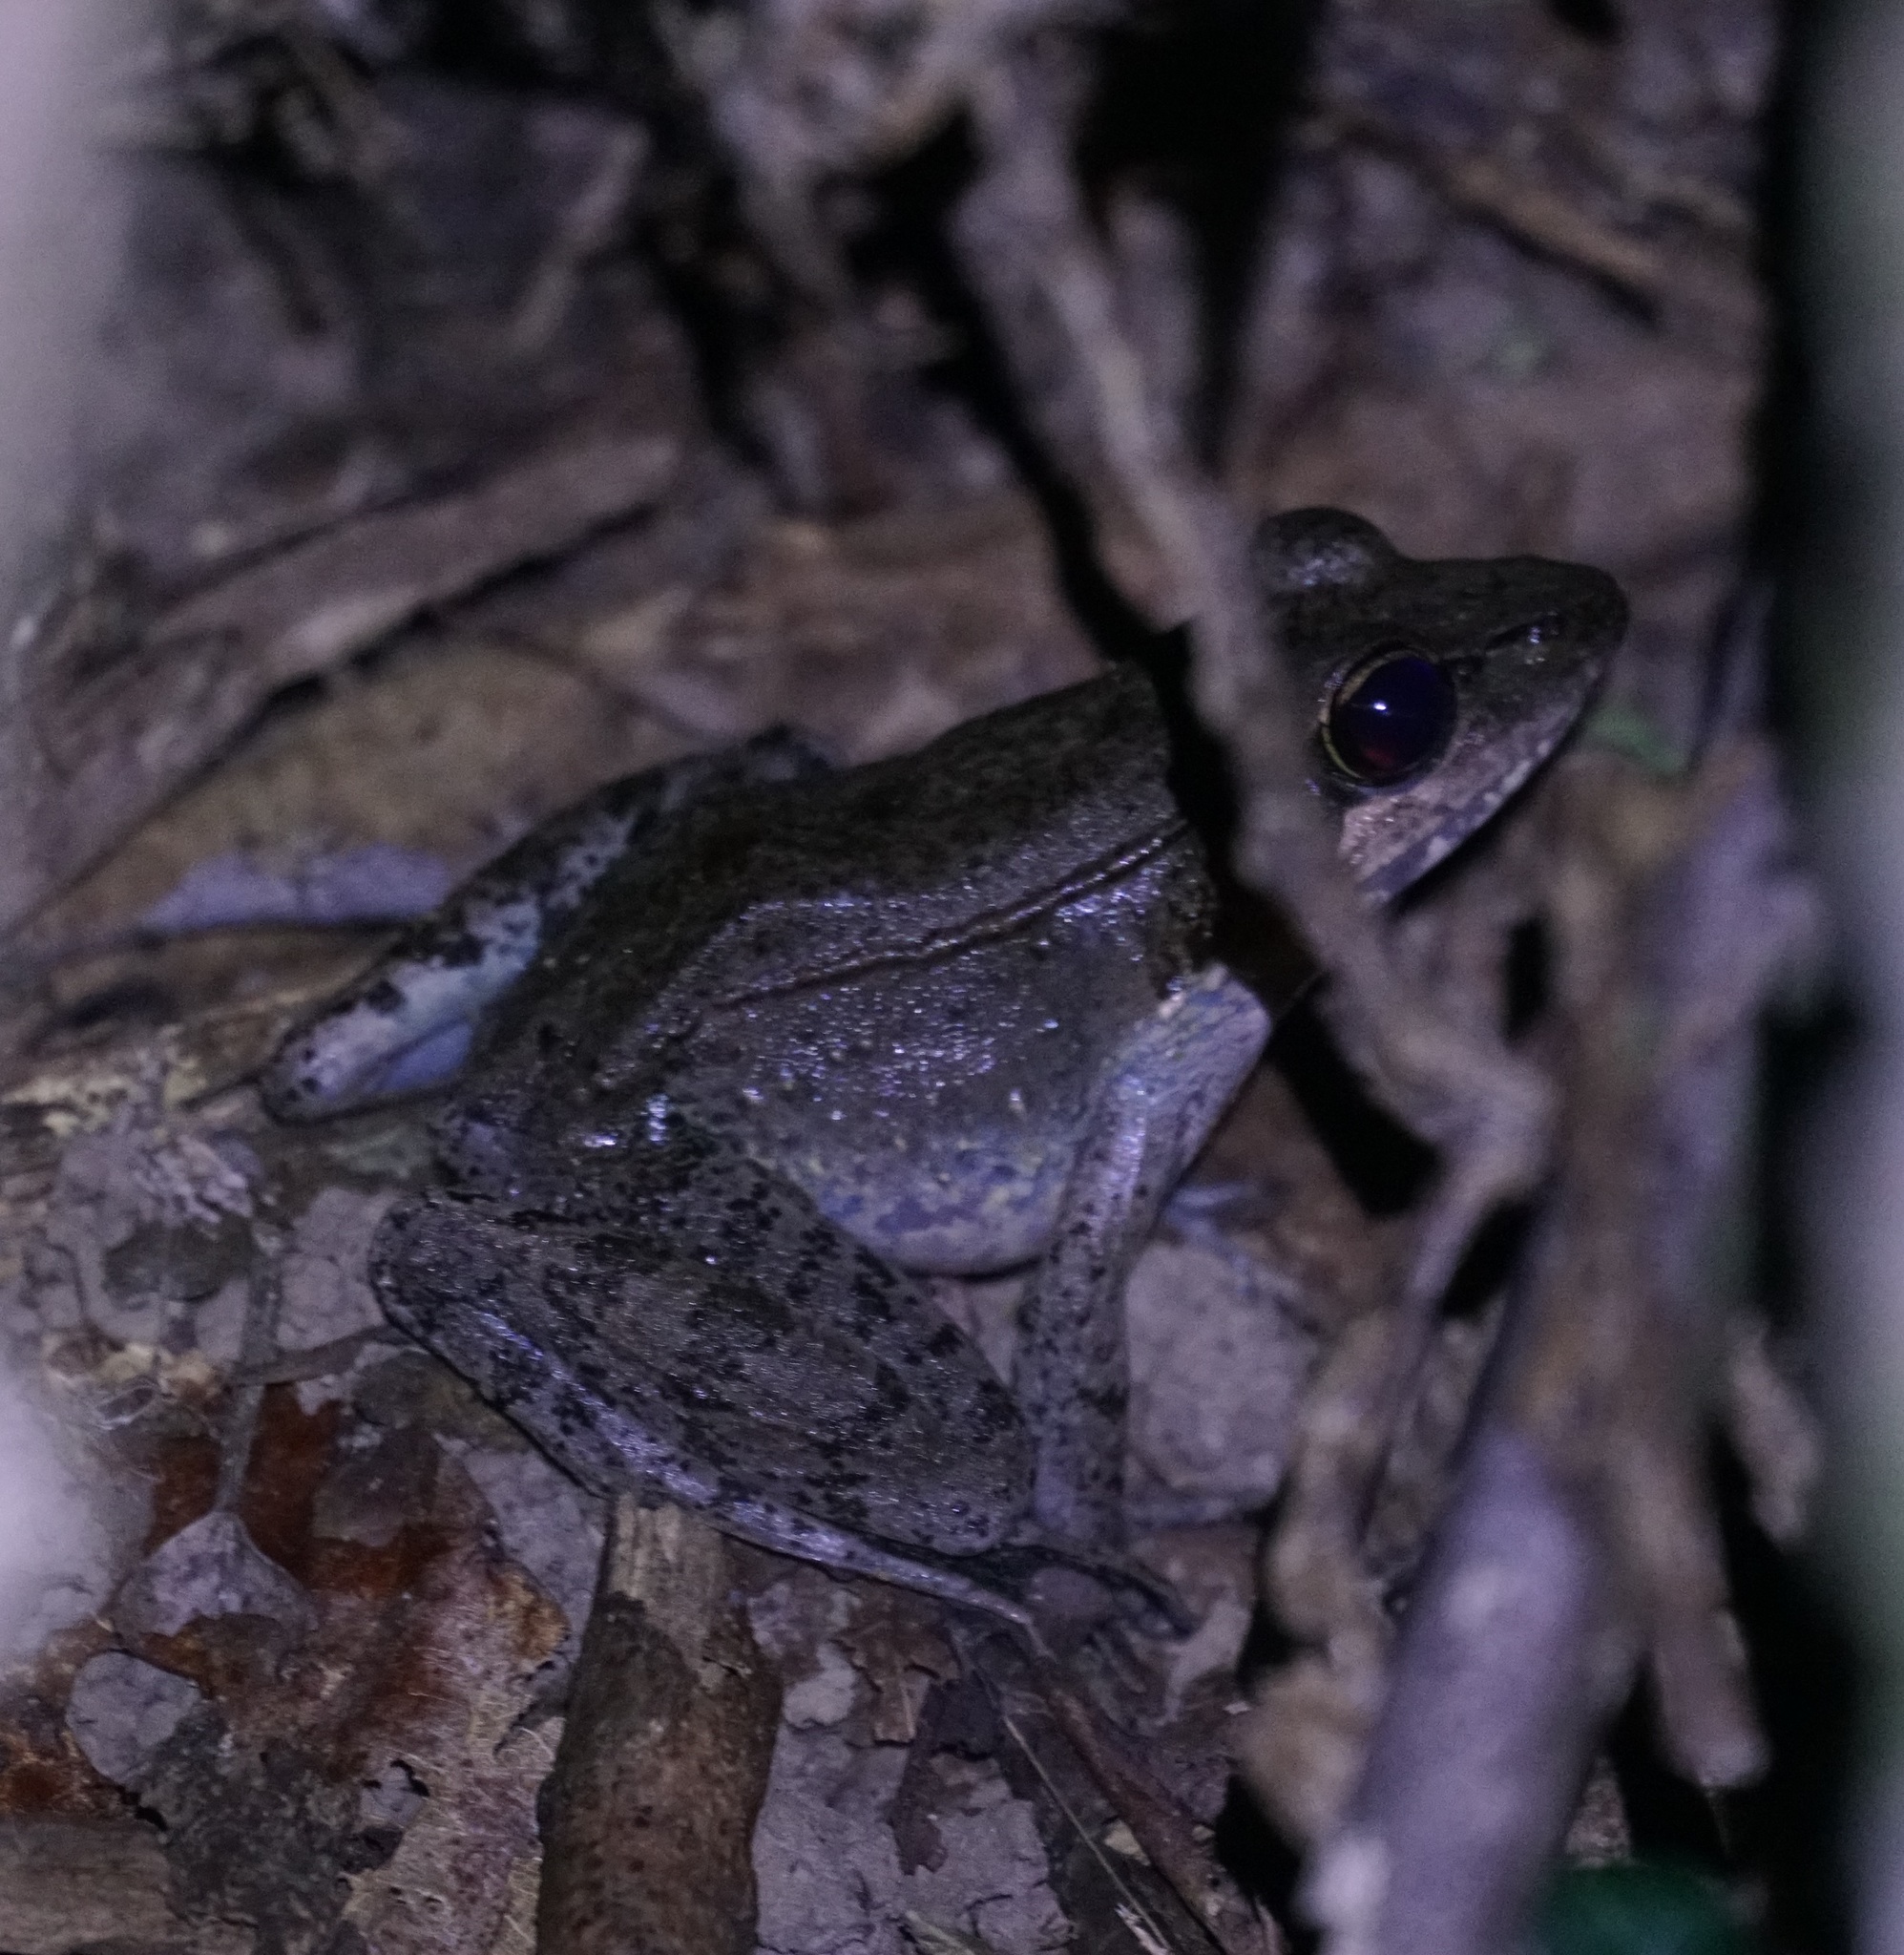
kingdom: Animalia
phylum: Chordata
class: Amphibia
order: Anura
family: Ranidae
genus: Papurana
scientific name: Papurana daemeli
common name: Arhem rana
